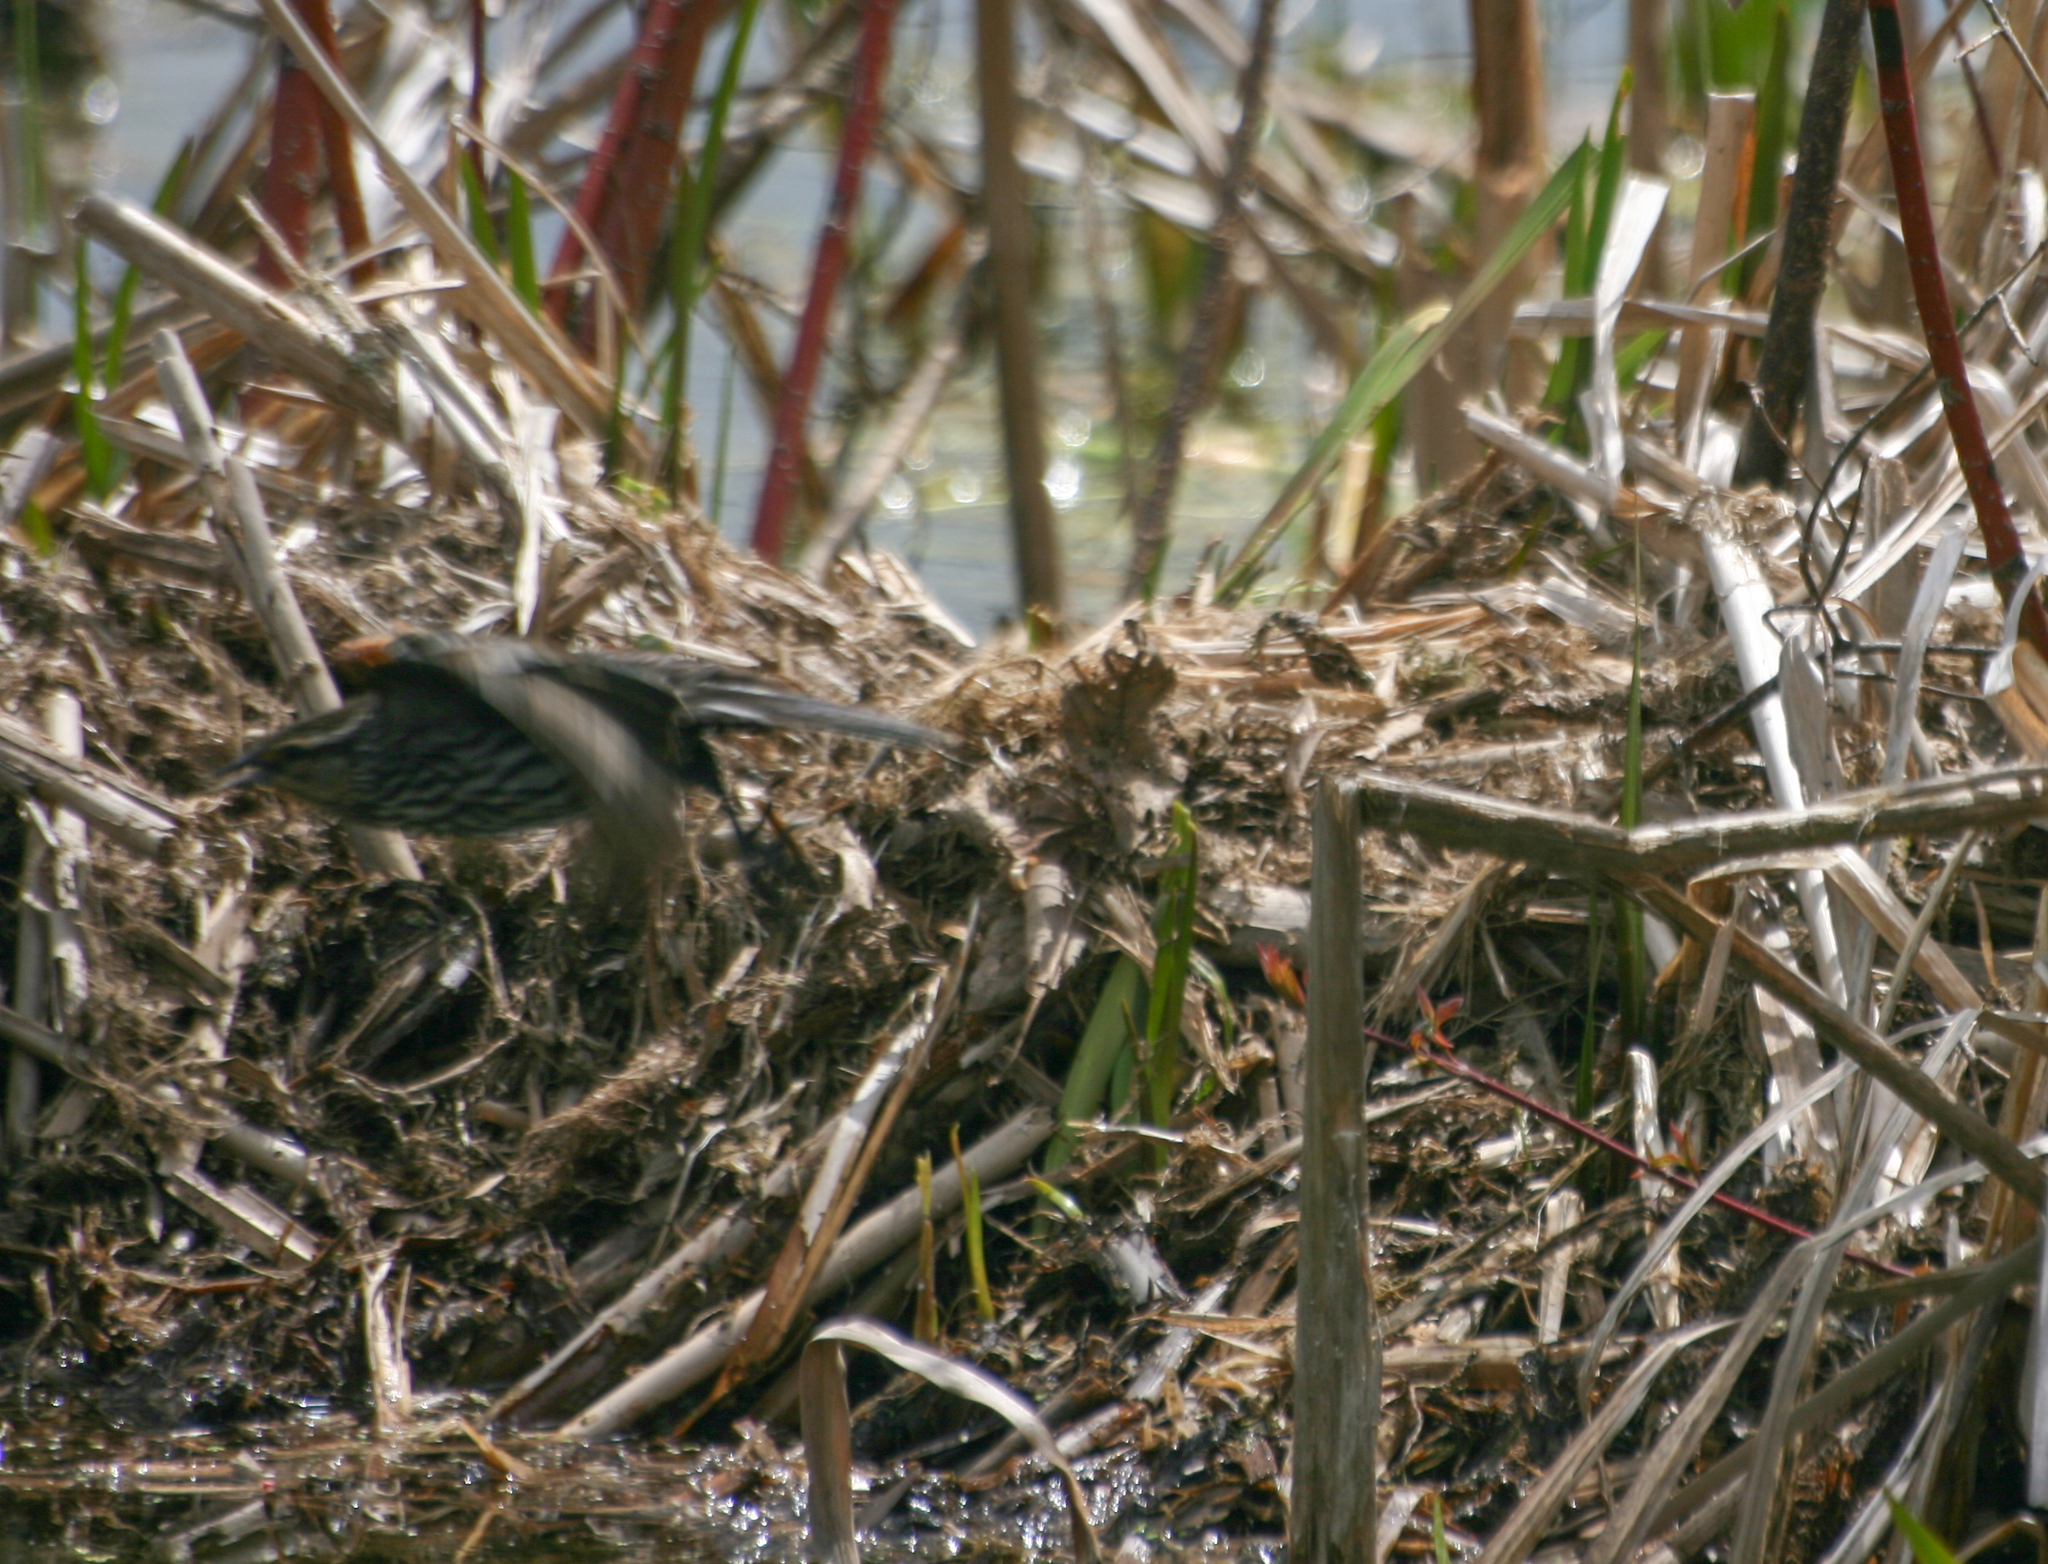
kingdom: Animalia
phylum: Chordata
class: Aves
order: Passeriformes
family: Icteridae
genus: Agelaius
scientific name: Agelaius phoeniceus
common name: Red-winged blackbird
